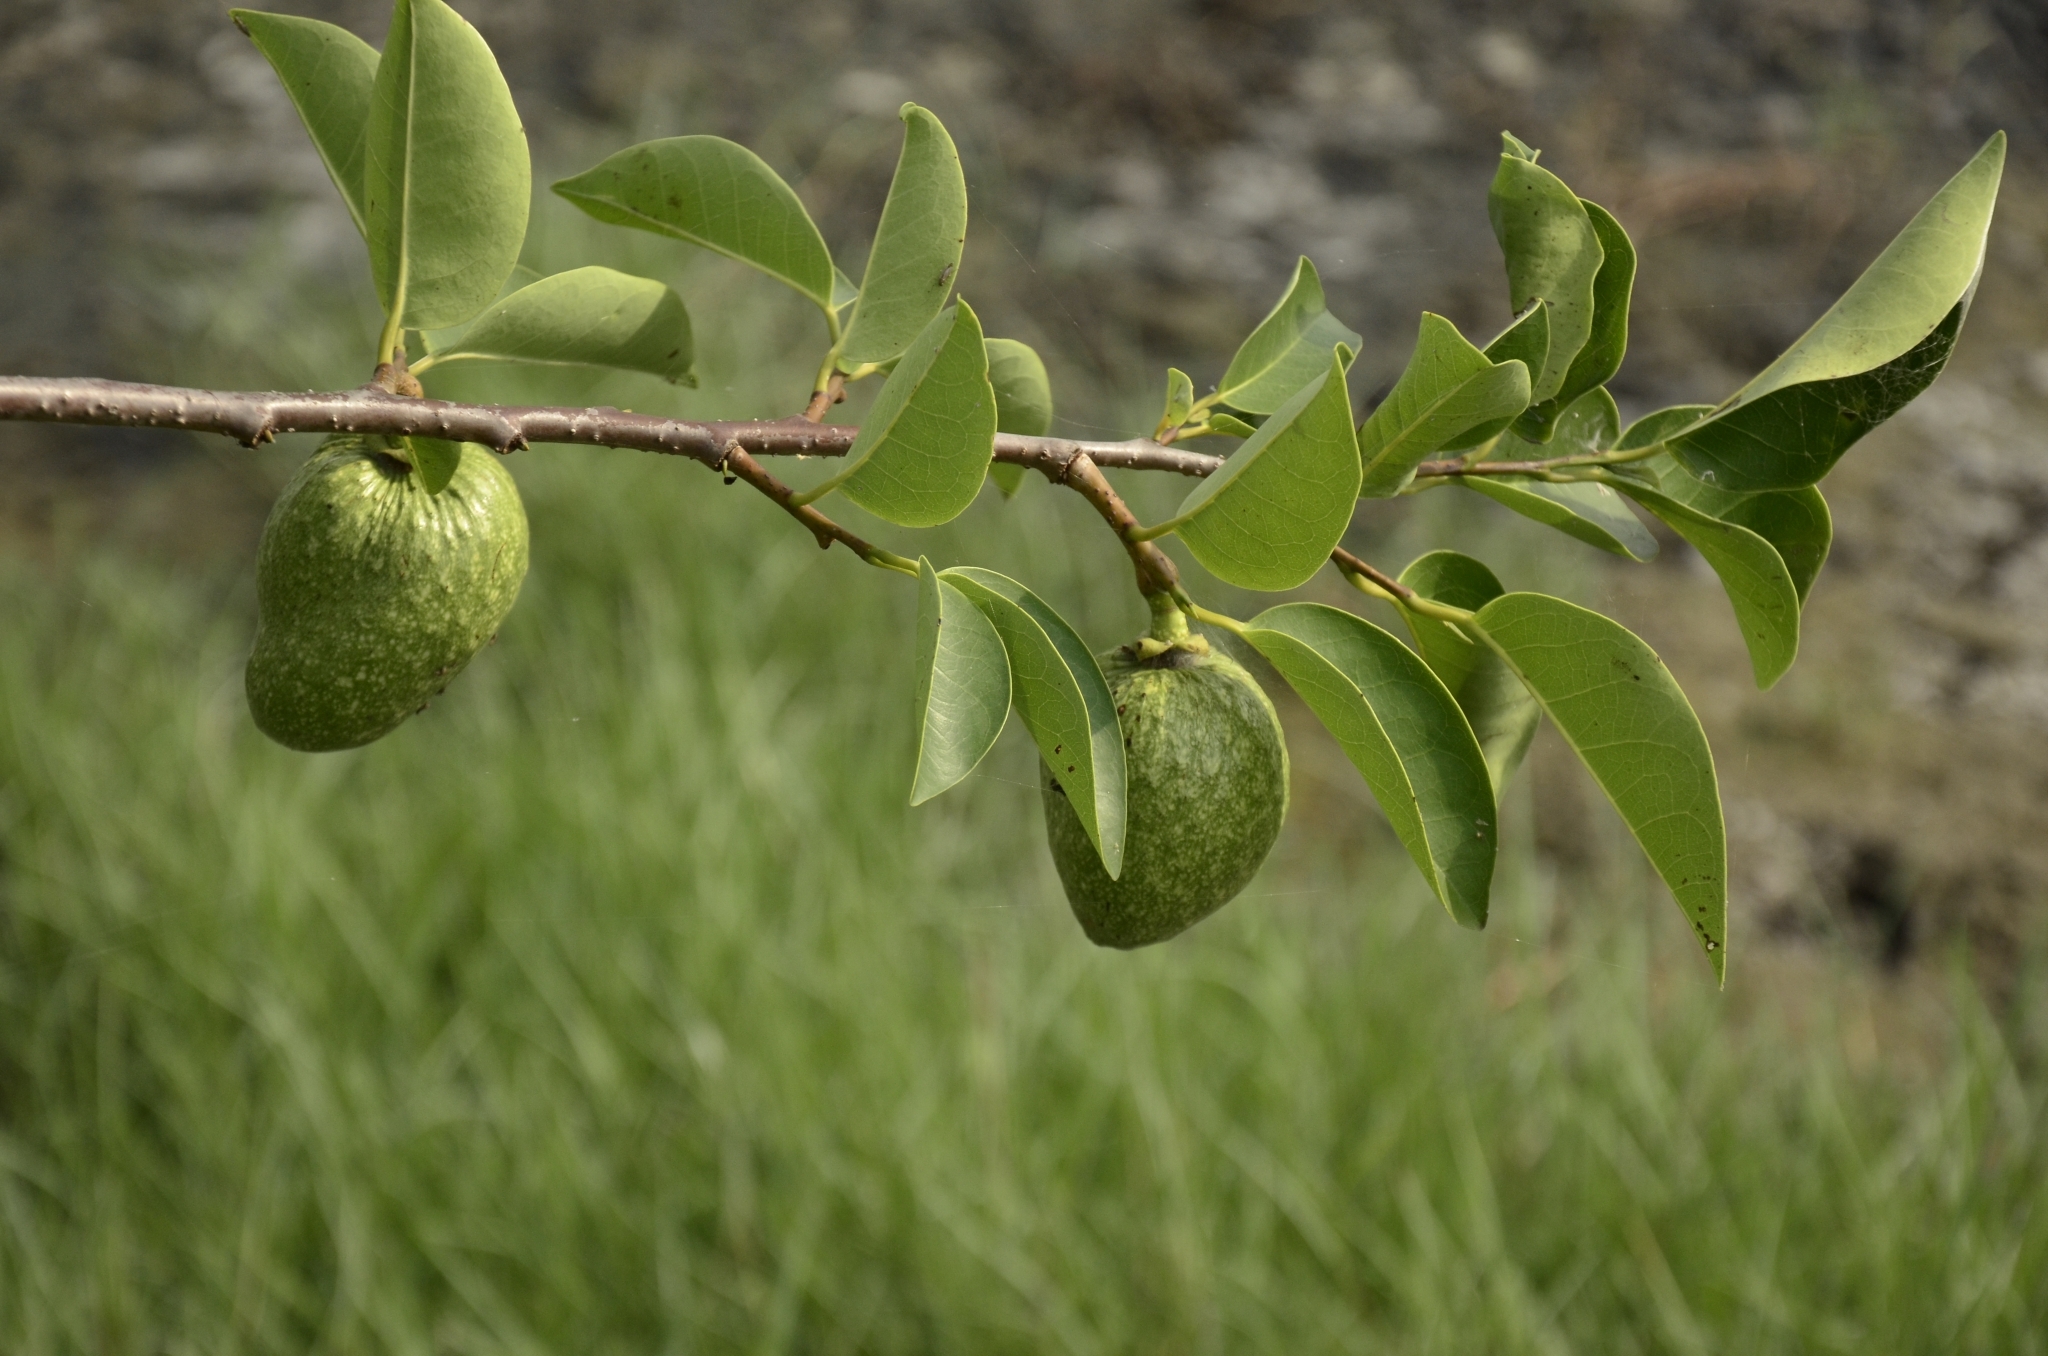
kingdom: Plantae
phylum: Tracheophyta
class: Magnoliopsida
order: Magnoliales
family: Annonaceae
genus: Annona
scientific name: Annona glabra
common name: Monkey apple
